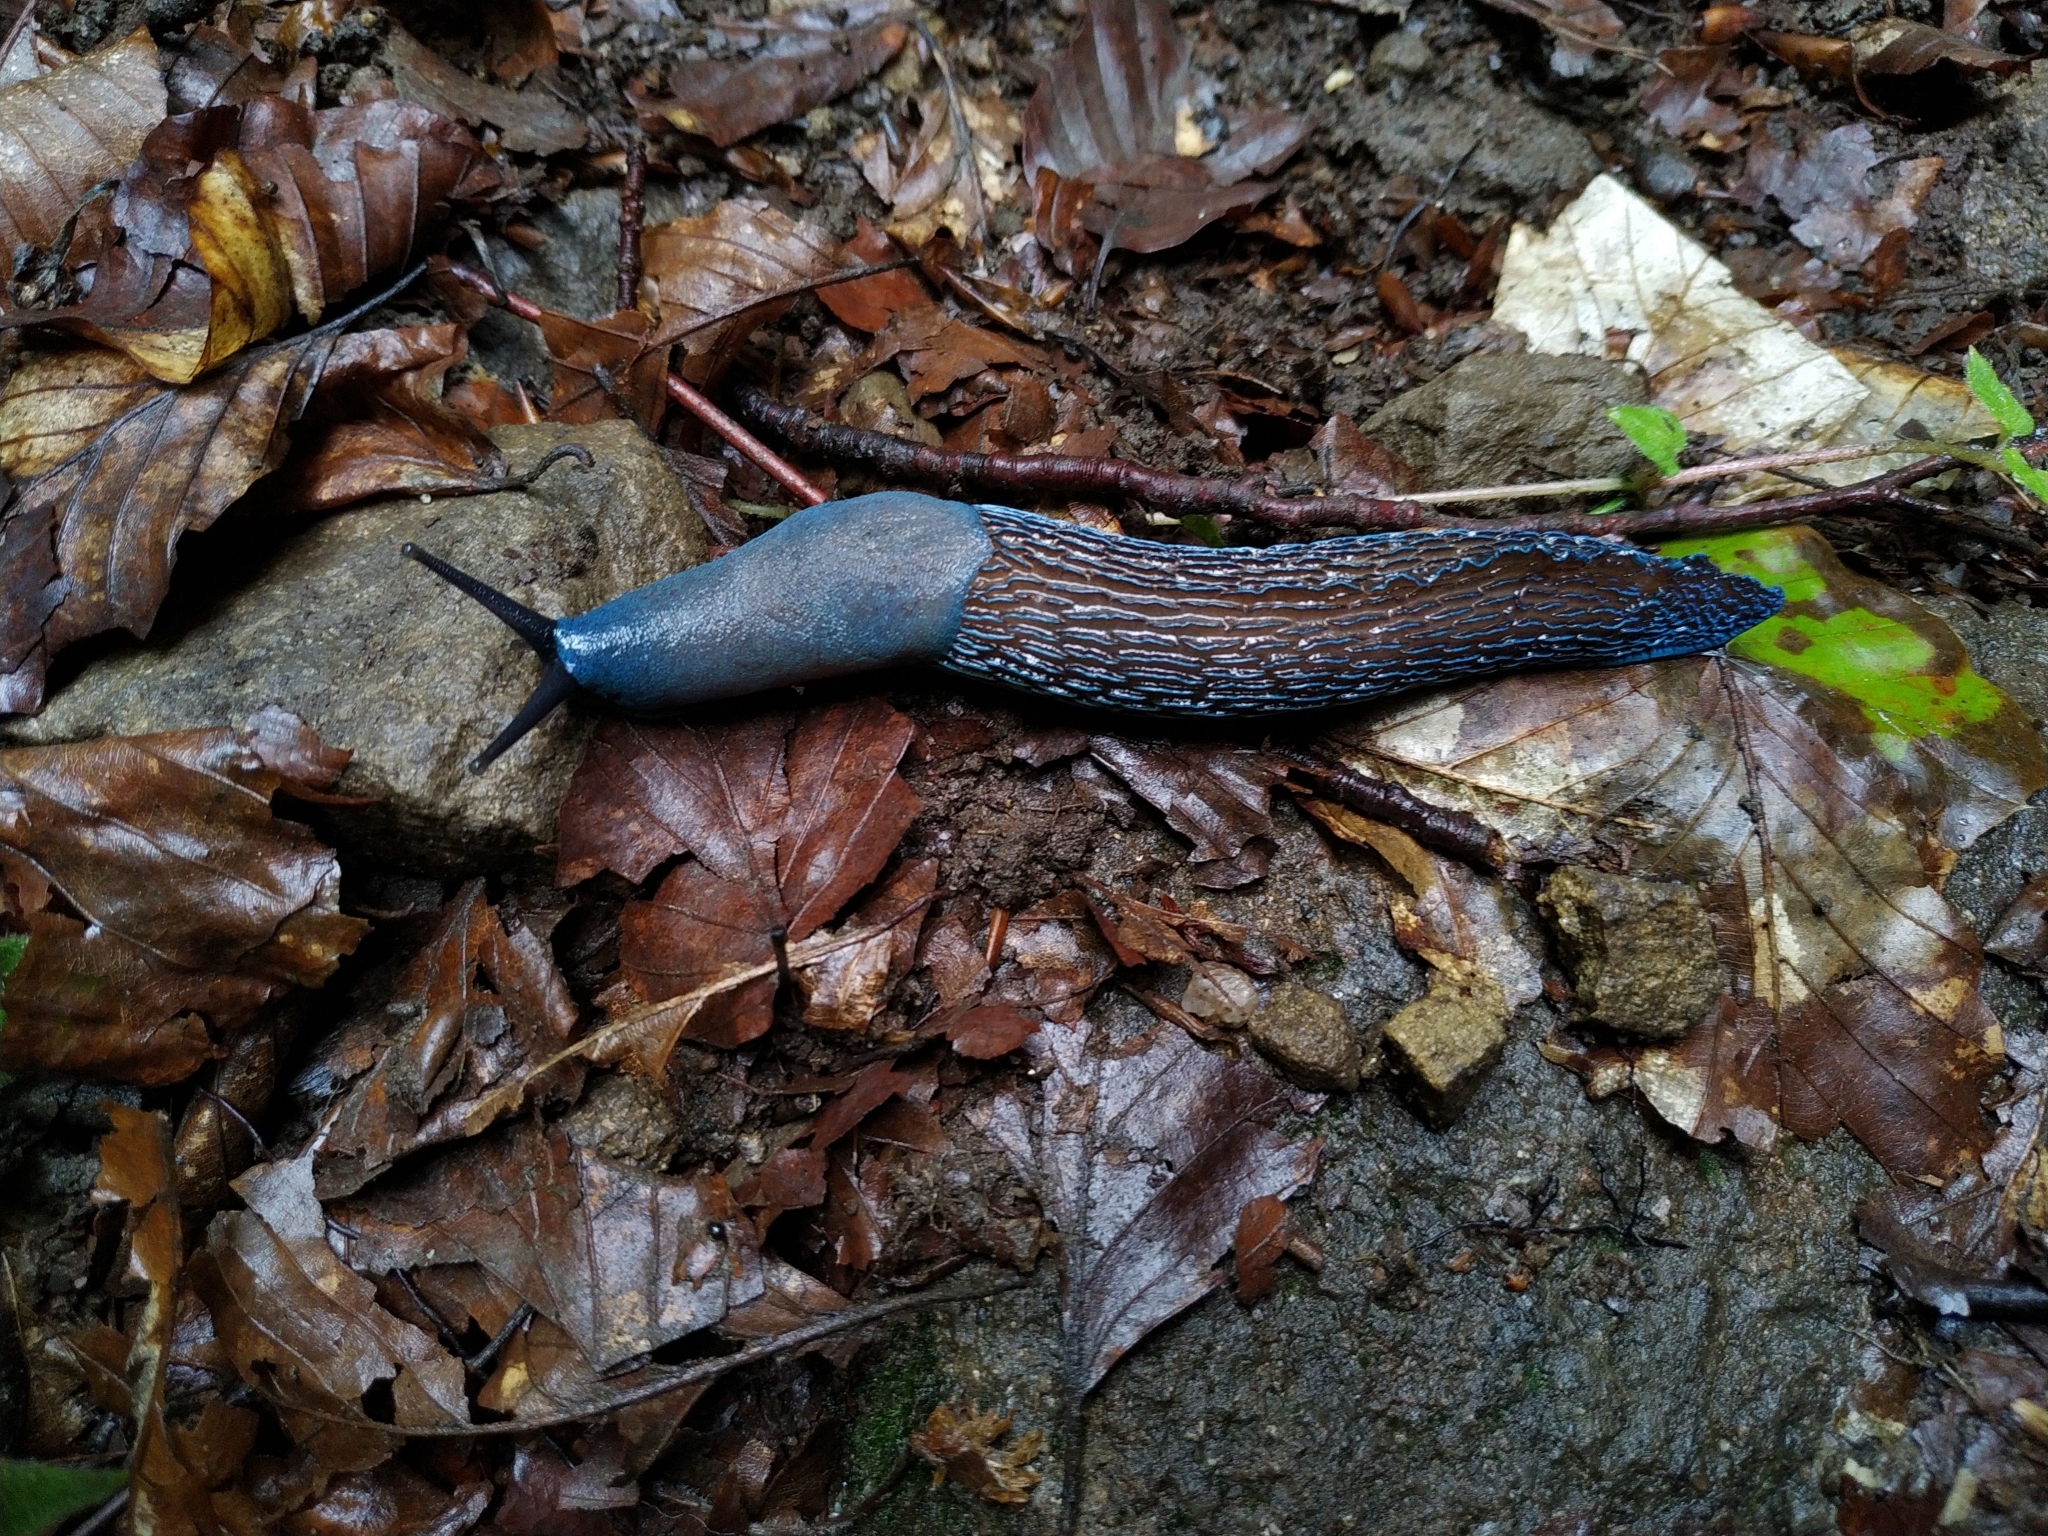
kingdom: Animalia
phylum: Mollusca
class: Gastropoda
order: Stylommatophora
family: Limacidae
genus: Bielzia
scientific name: Bielzia coerulans
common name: Carpathian blue slug
